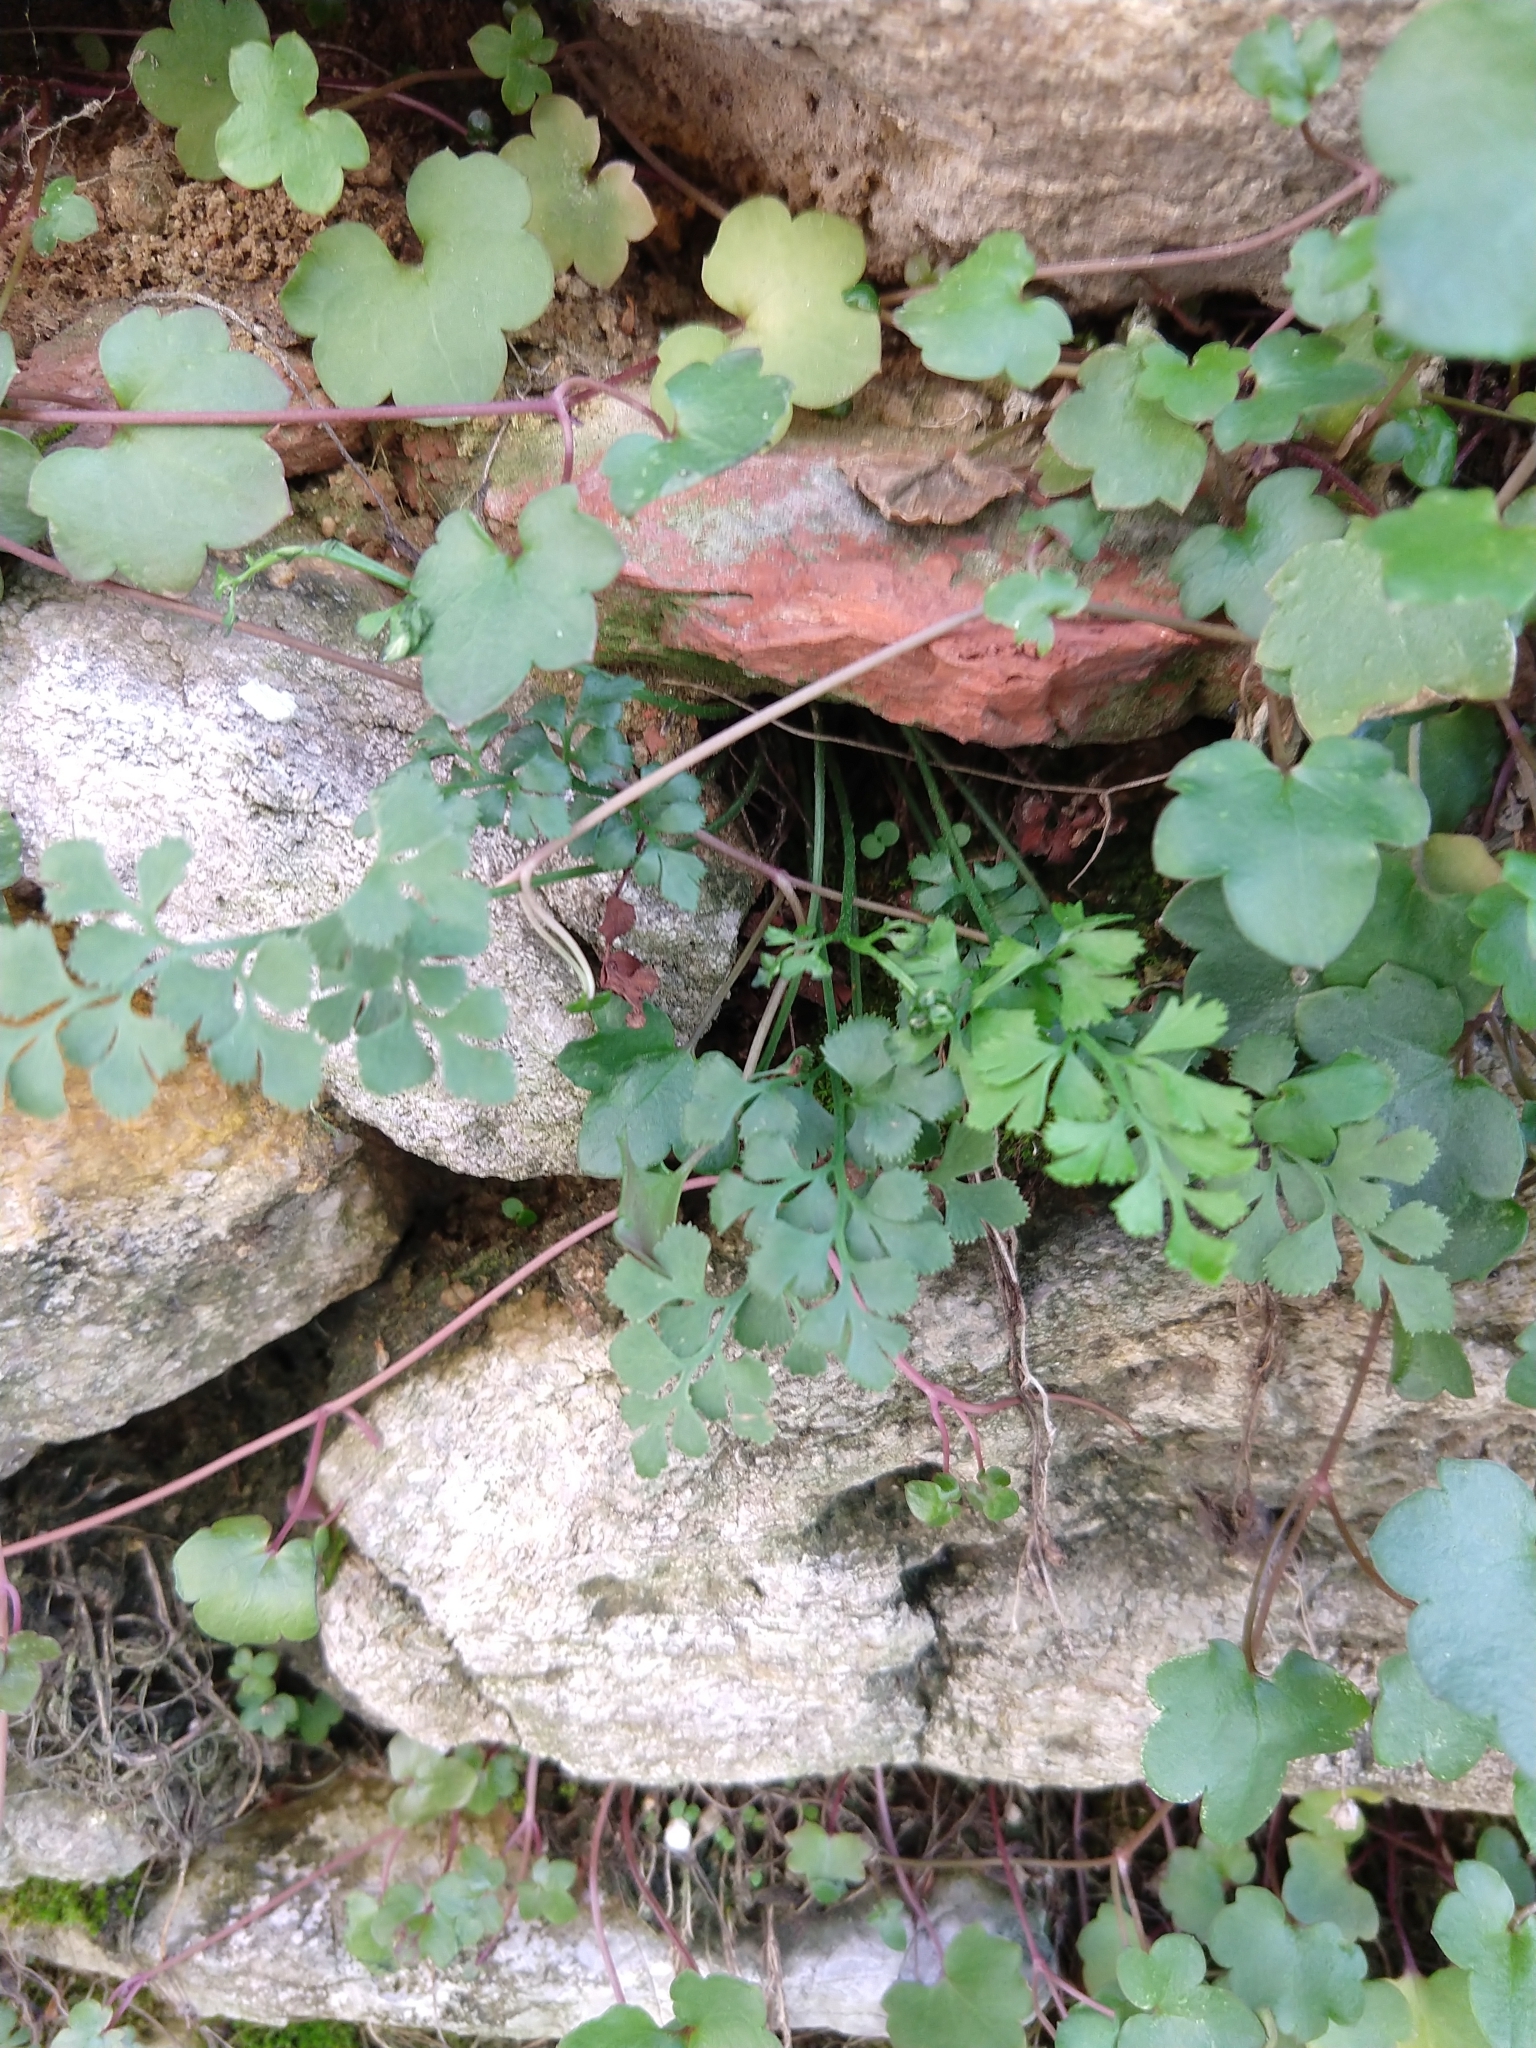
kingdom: Plantae
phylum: Tracheophyta
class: Polypodiopsida
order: Polypodiales
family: Aspleniaceae
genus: Asplenium
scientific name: Asplenium ruta-muraria
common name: Wall-rue
